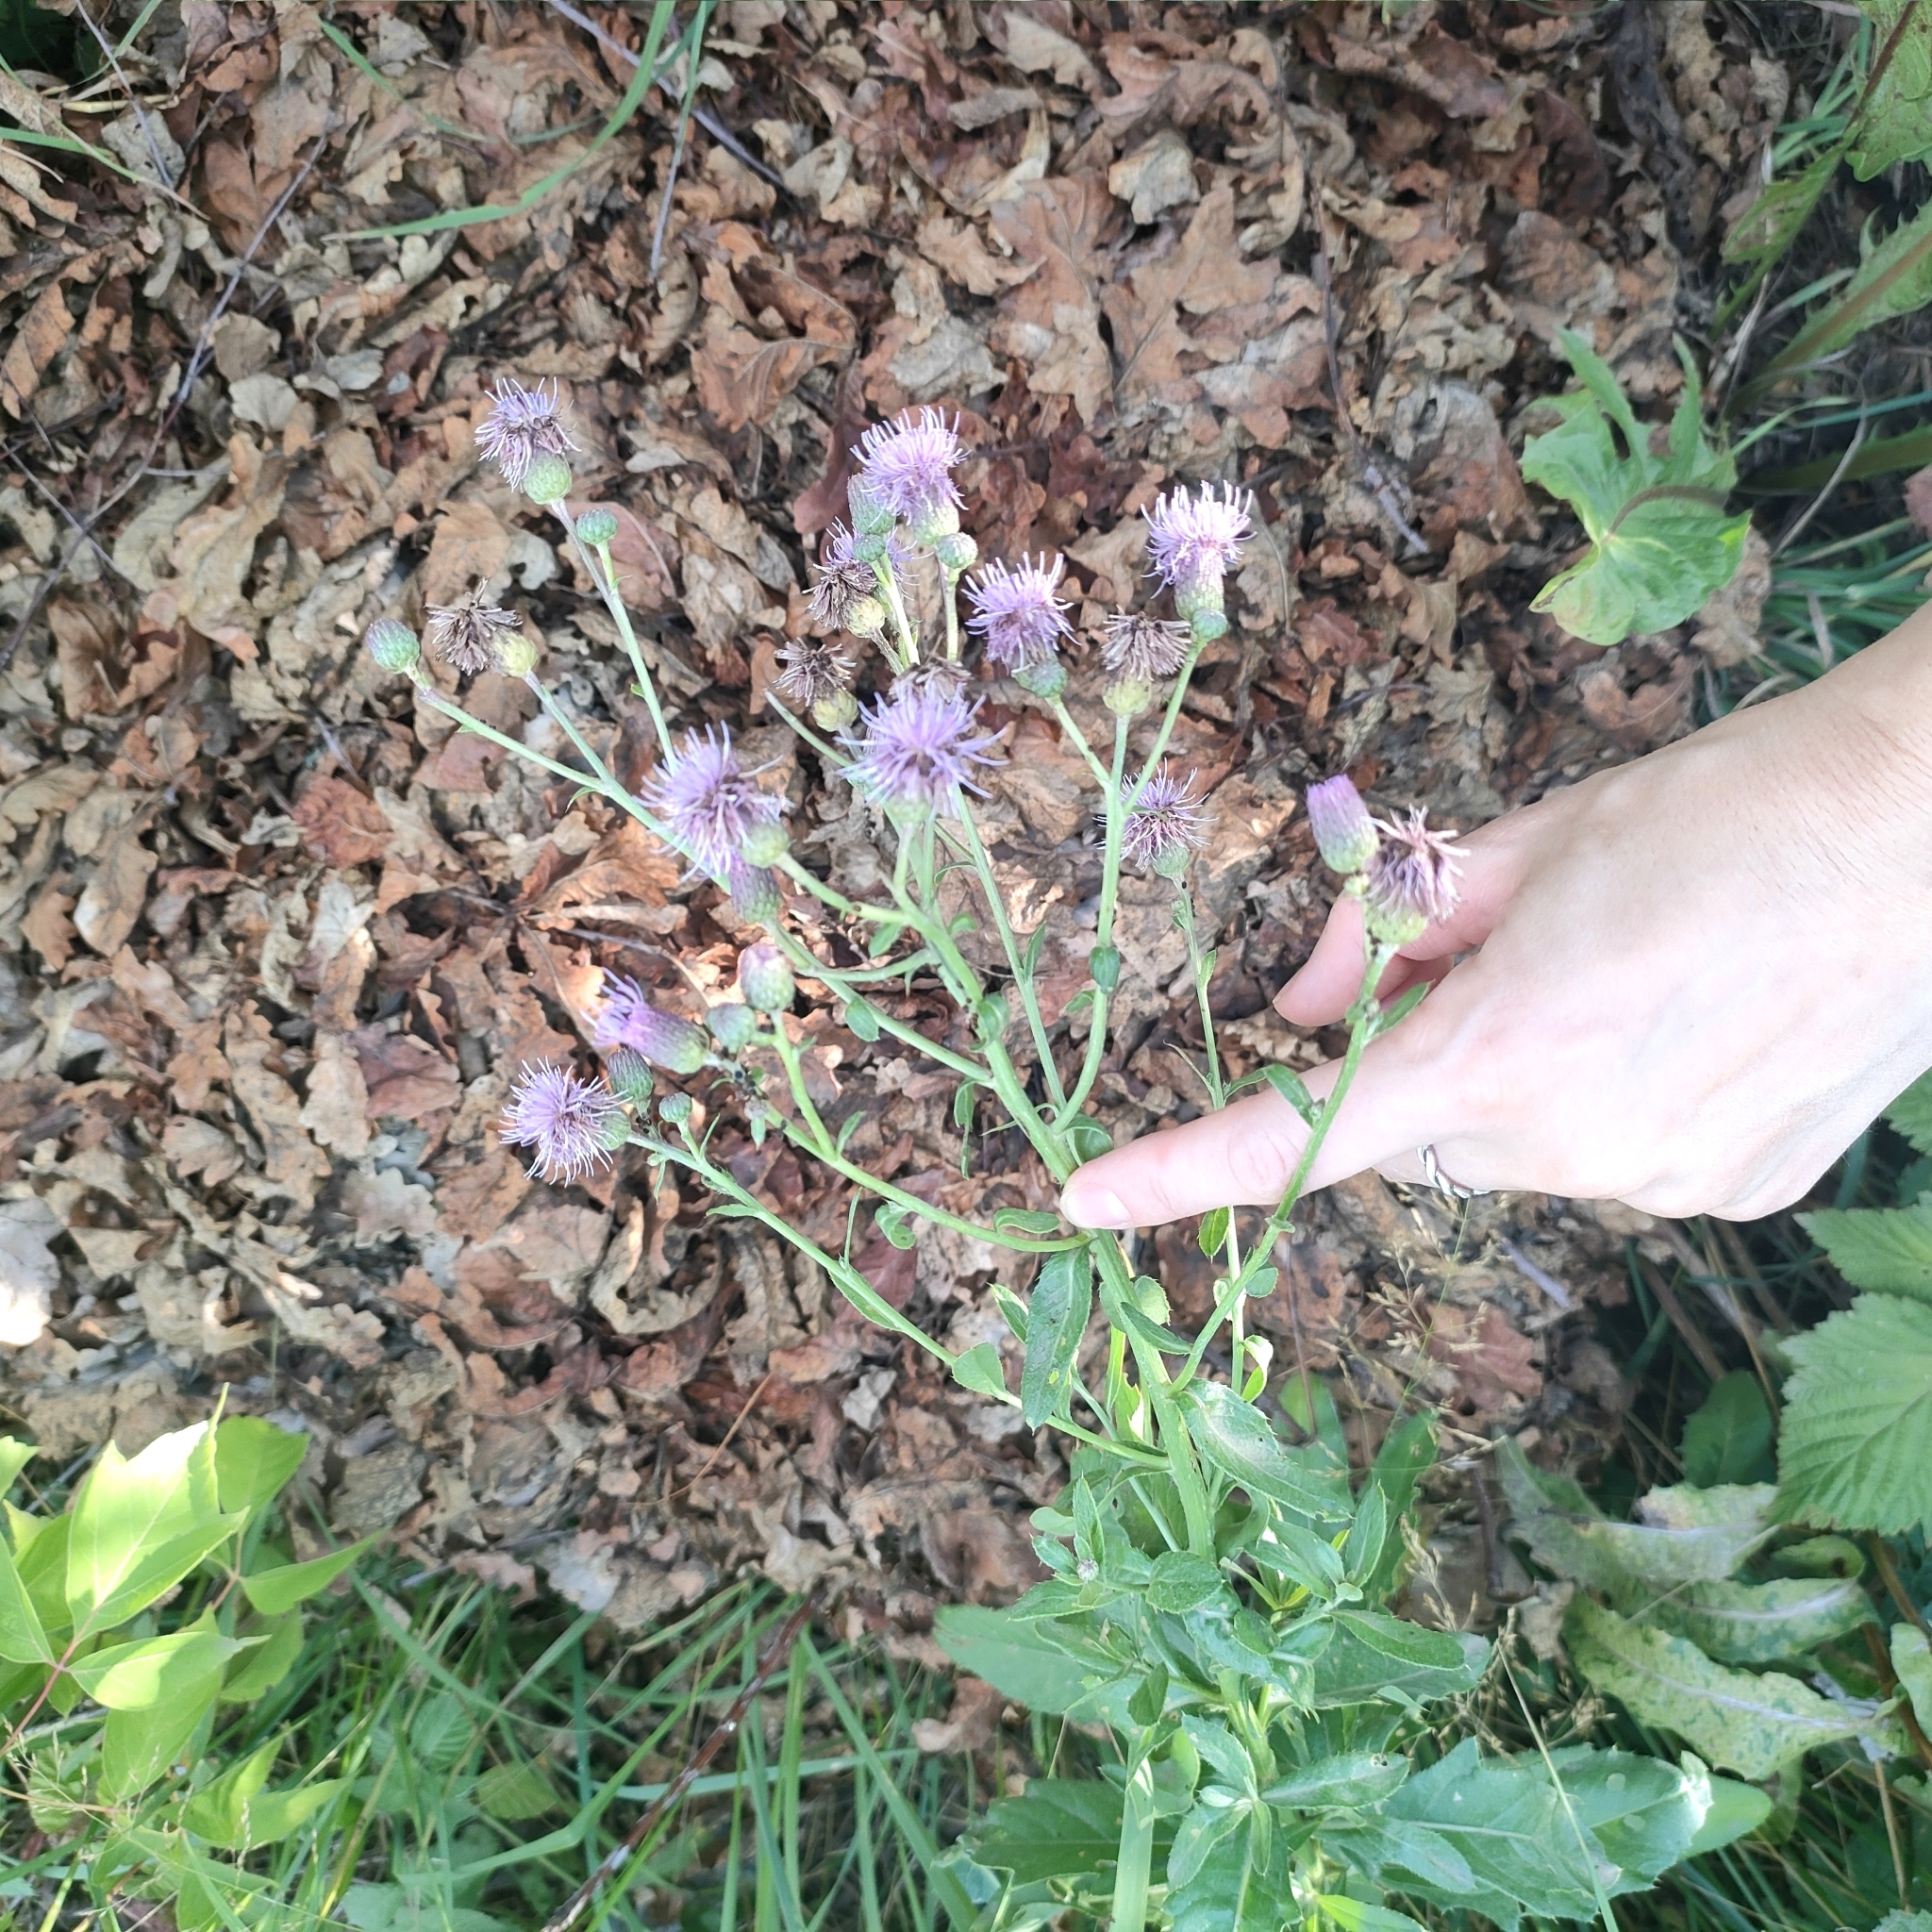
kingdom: Plantae
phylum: Tracheophyta
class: Magnoliopsida
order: Asterales
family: Asteraceae
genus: Cirsium
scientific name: Cirsium arvense
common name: Creeping thistle
